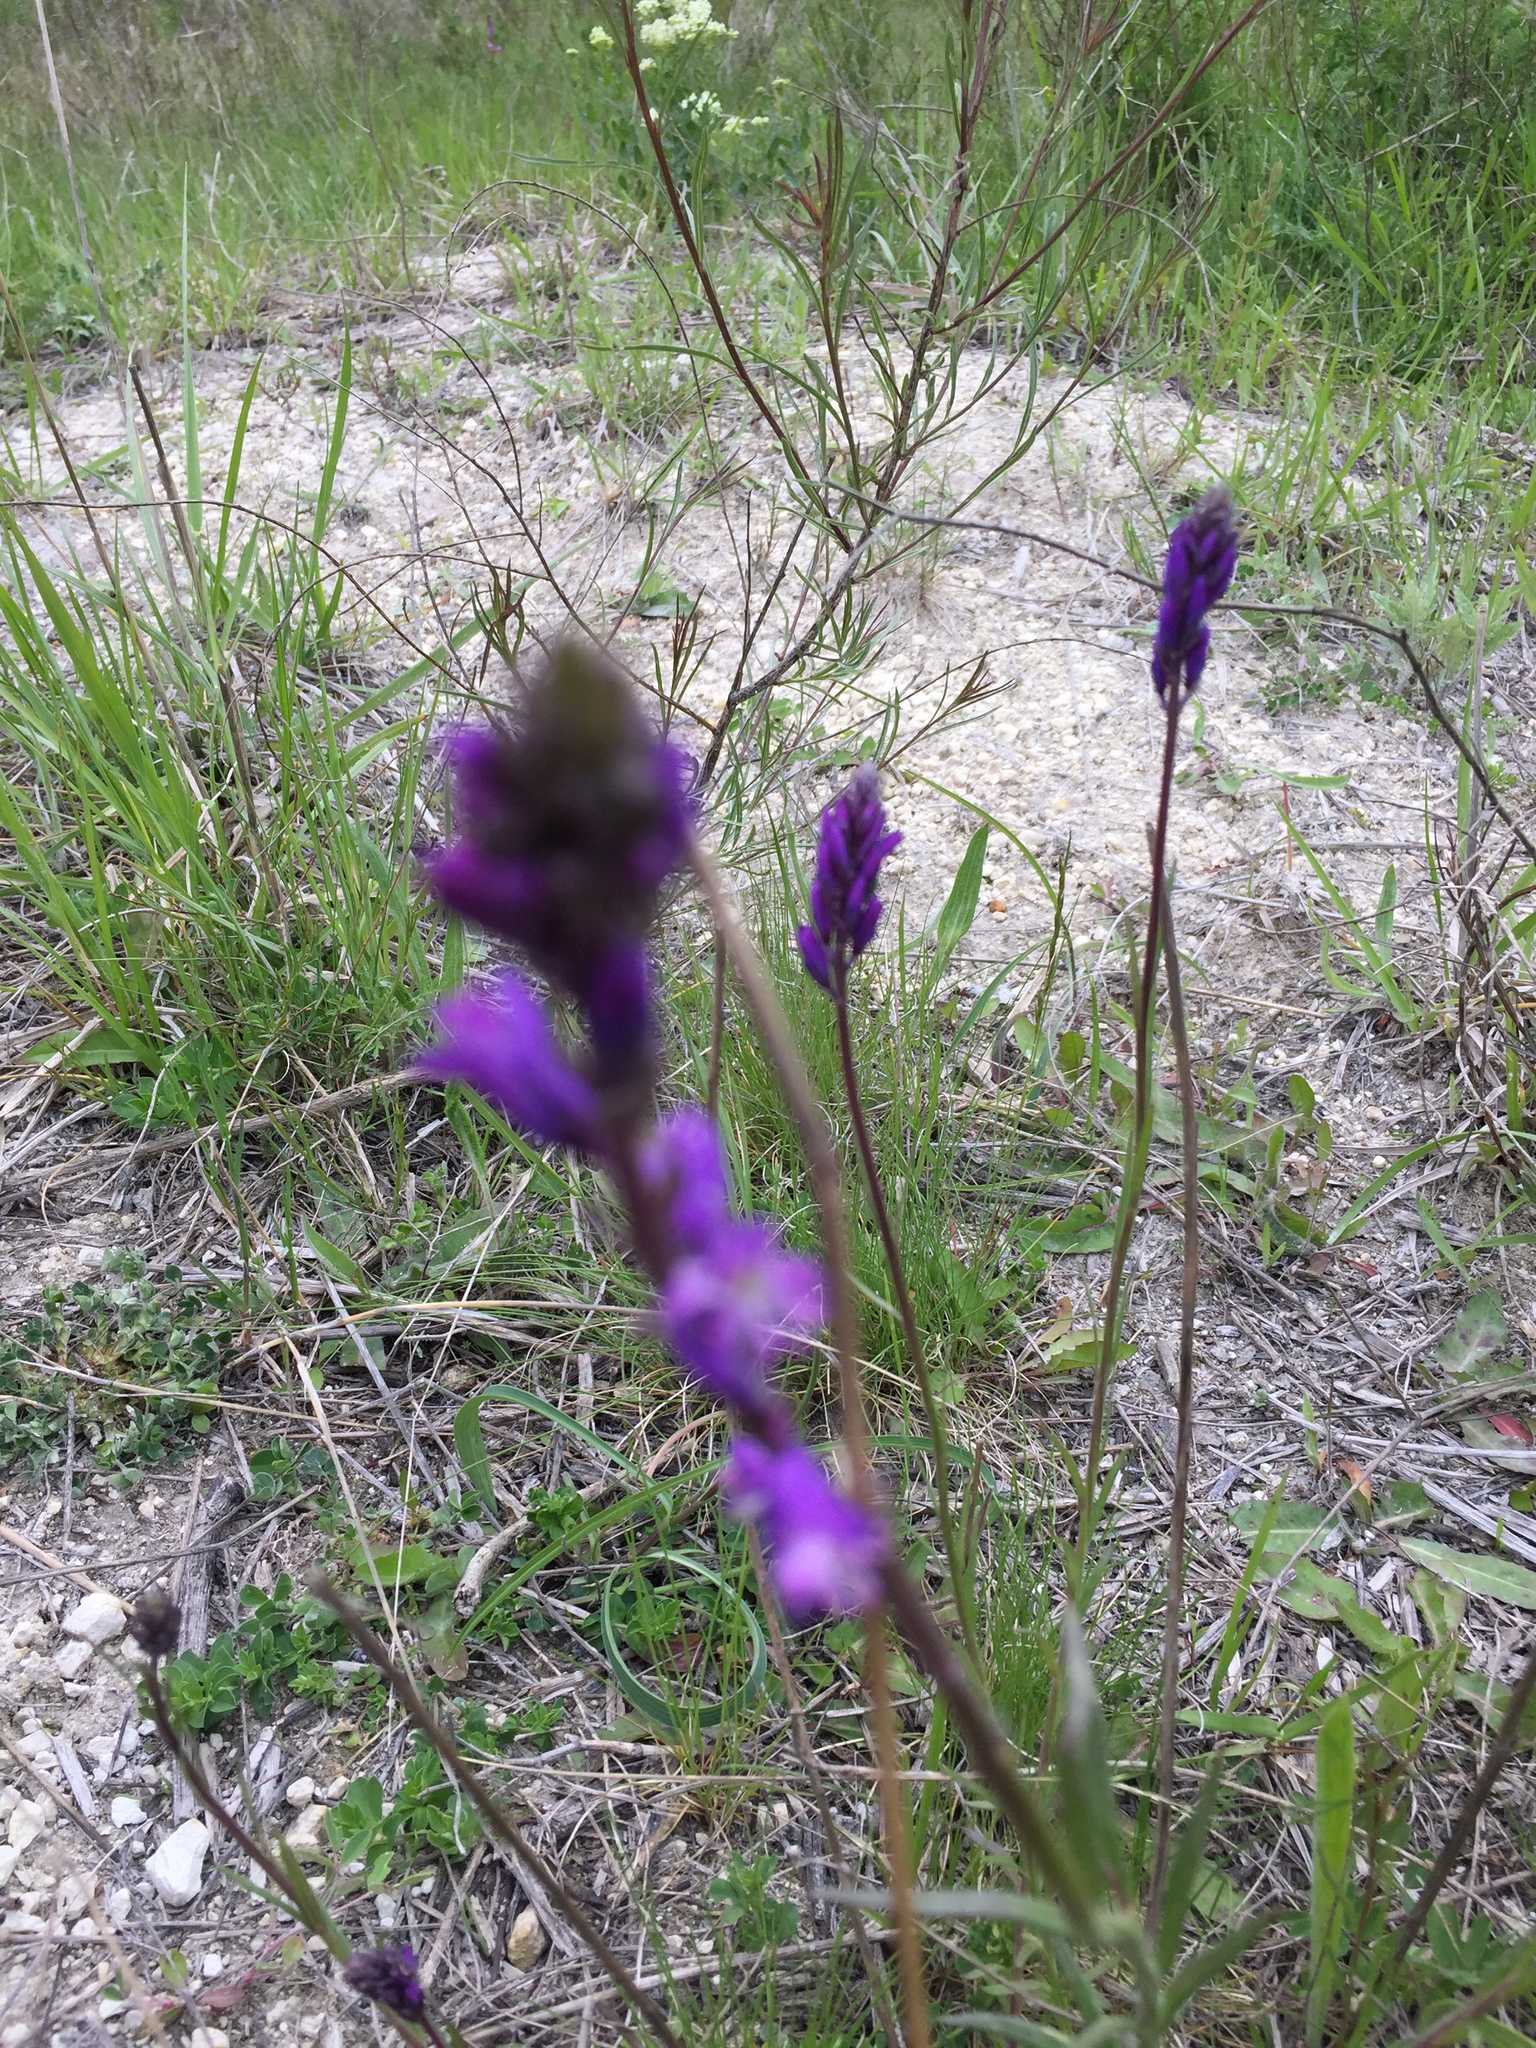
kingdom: Plantae
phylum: Tracheophyta
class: Magnoliopsida
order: Fabales
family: Polygalaceae
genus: Polygala
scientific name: Polygala nicaeensis
